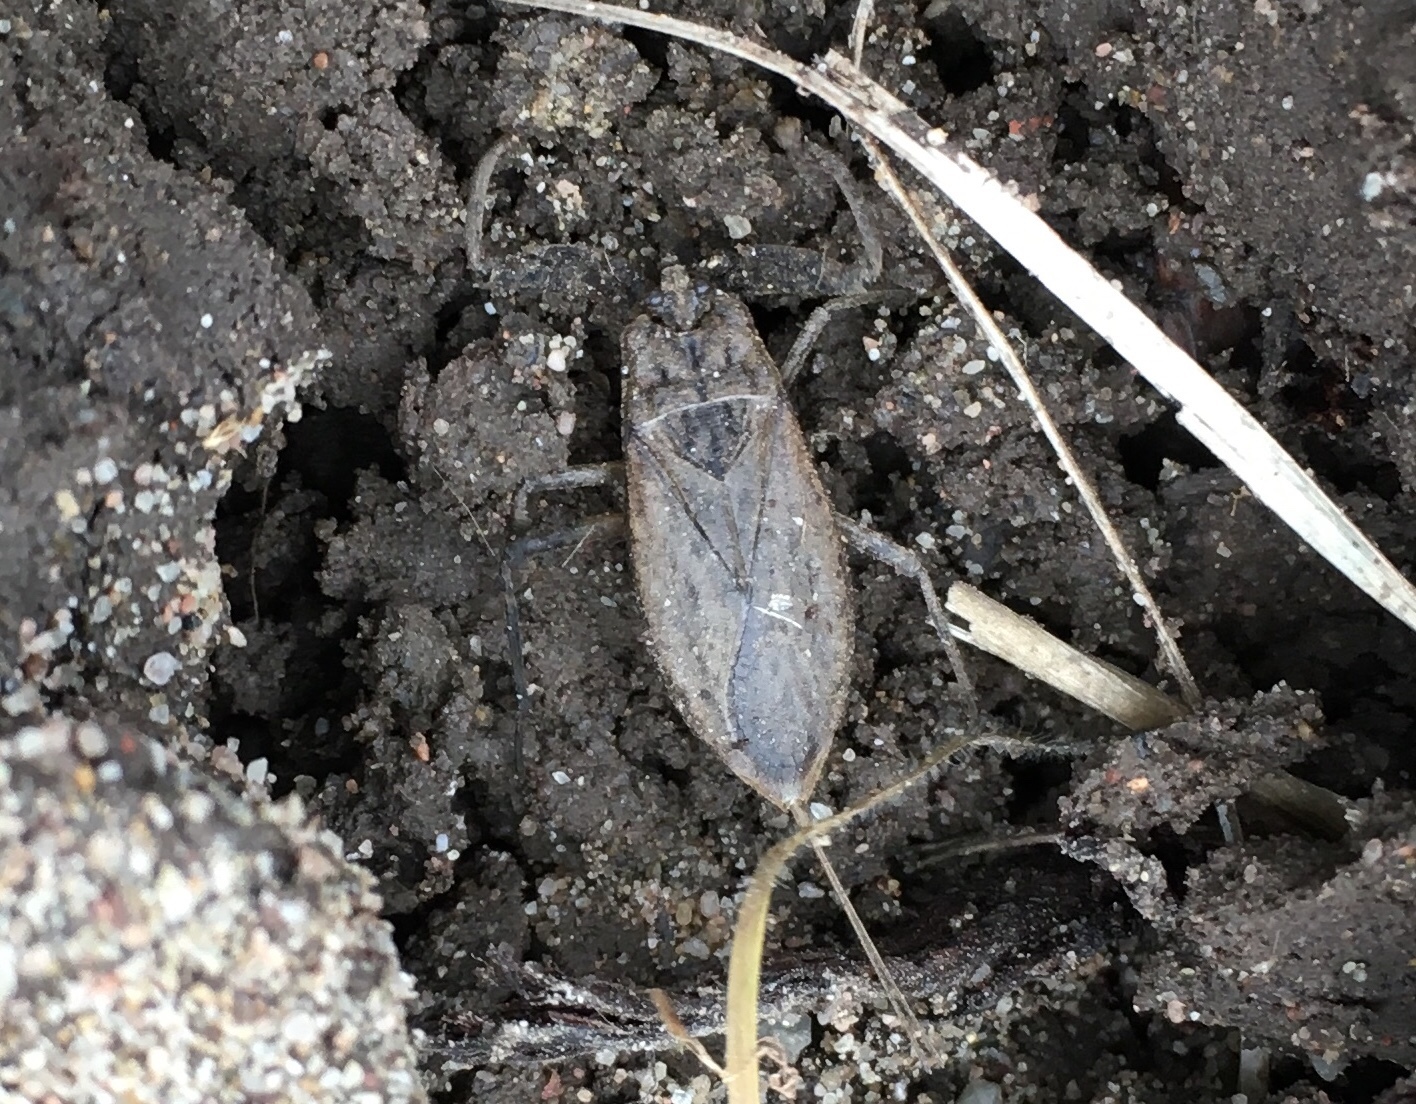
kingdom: Animalia
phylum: Arthropoda
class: Insecta
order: Hemiptera
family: Nepidae
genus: Nepa
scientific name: Nepa cinerea
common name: Water scorpion
